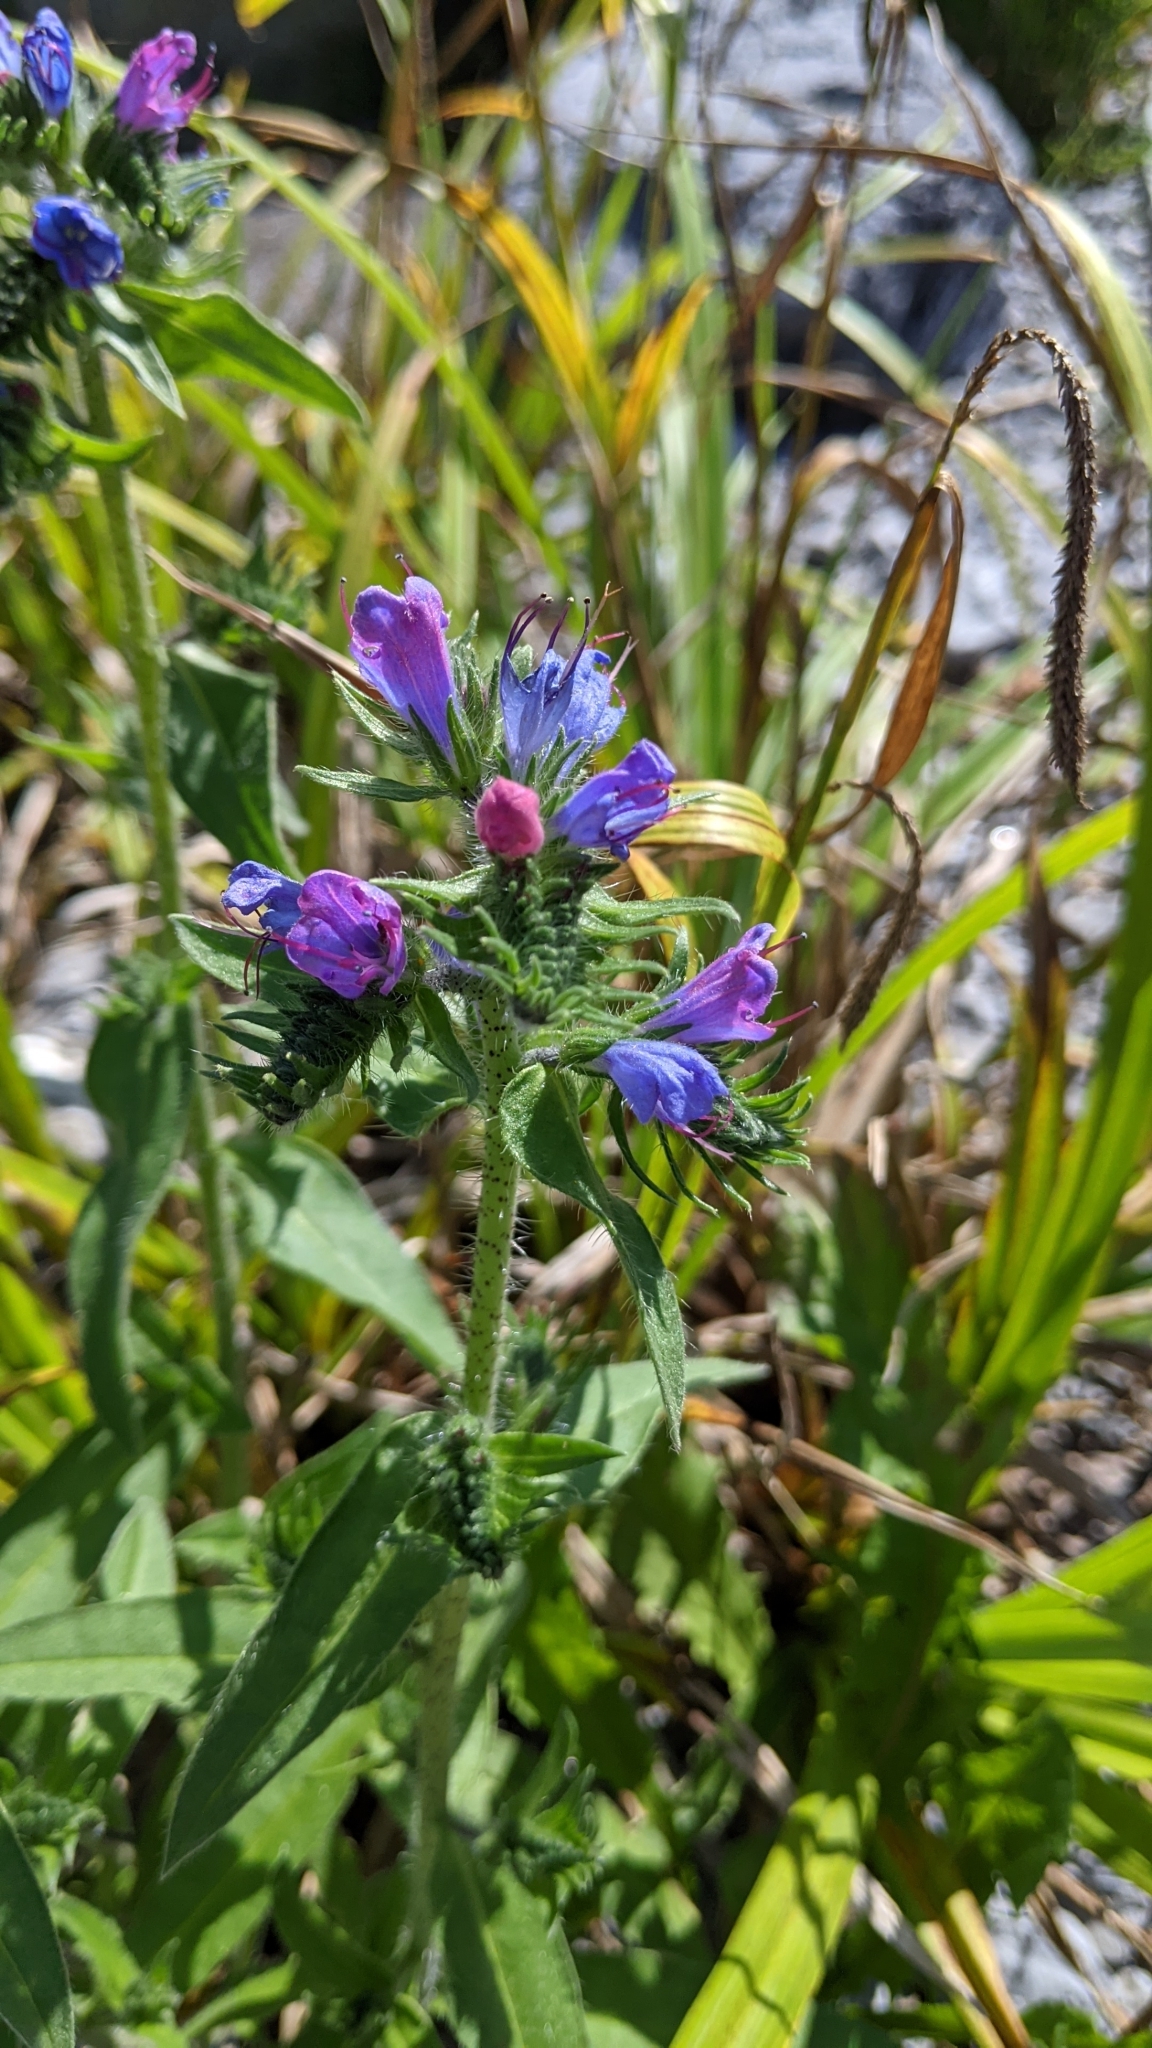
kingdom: Plantae
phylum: Tracheophyta
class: Magnoliopsida
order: Boraginales
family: Boraginaceae
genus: Echium
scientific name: Echium vulgare
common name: Common viper's bugloss
